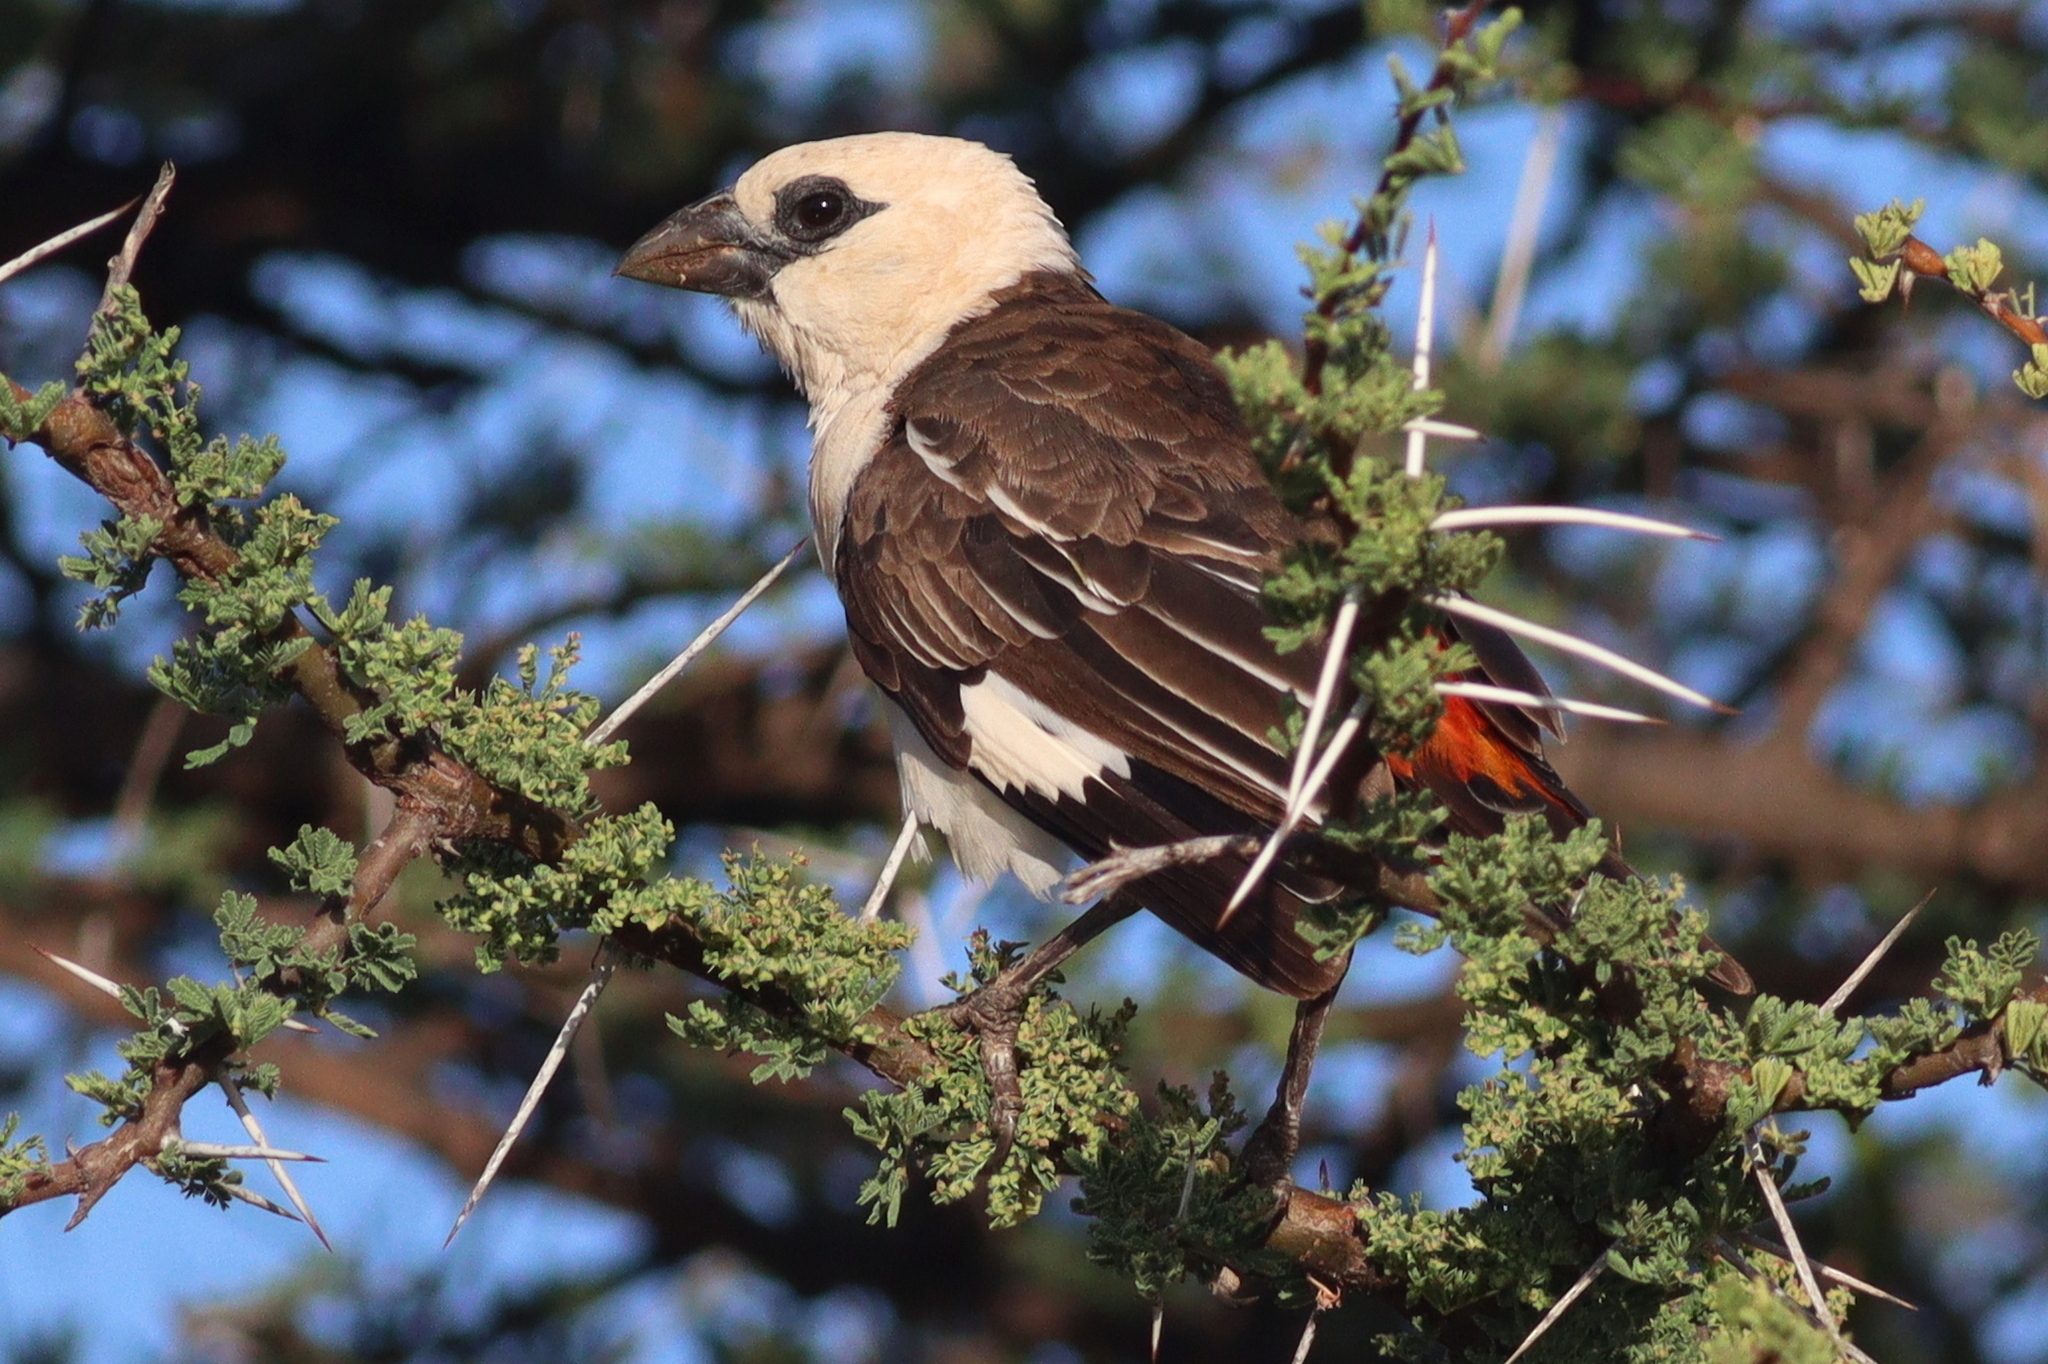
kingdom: Animalia
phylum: Chordata
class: Aves
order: Passeriformes
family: Ploceidae
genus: Dinemellia
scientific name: Dinemellia dinemelli
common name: White-headed buffalo weaver
